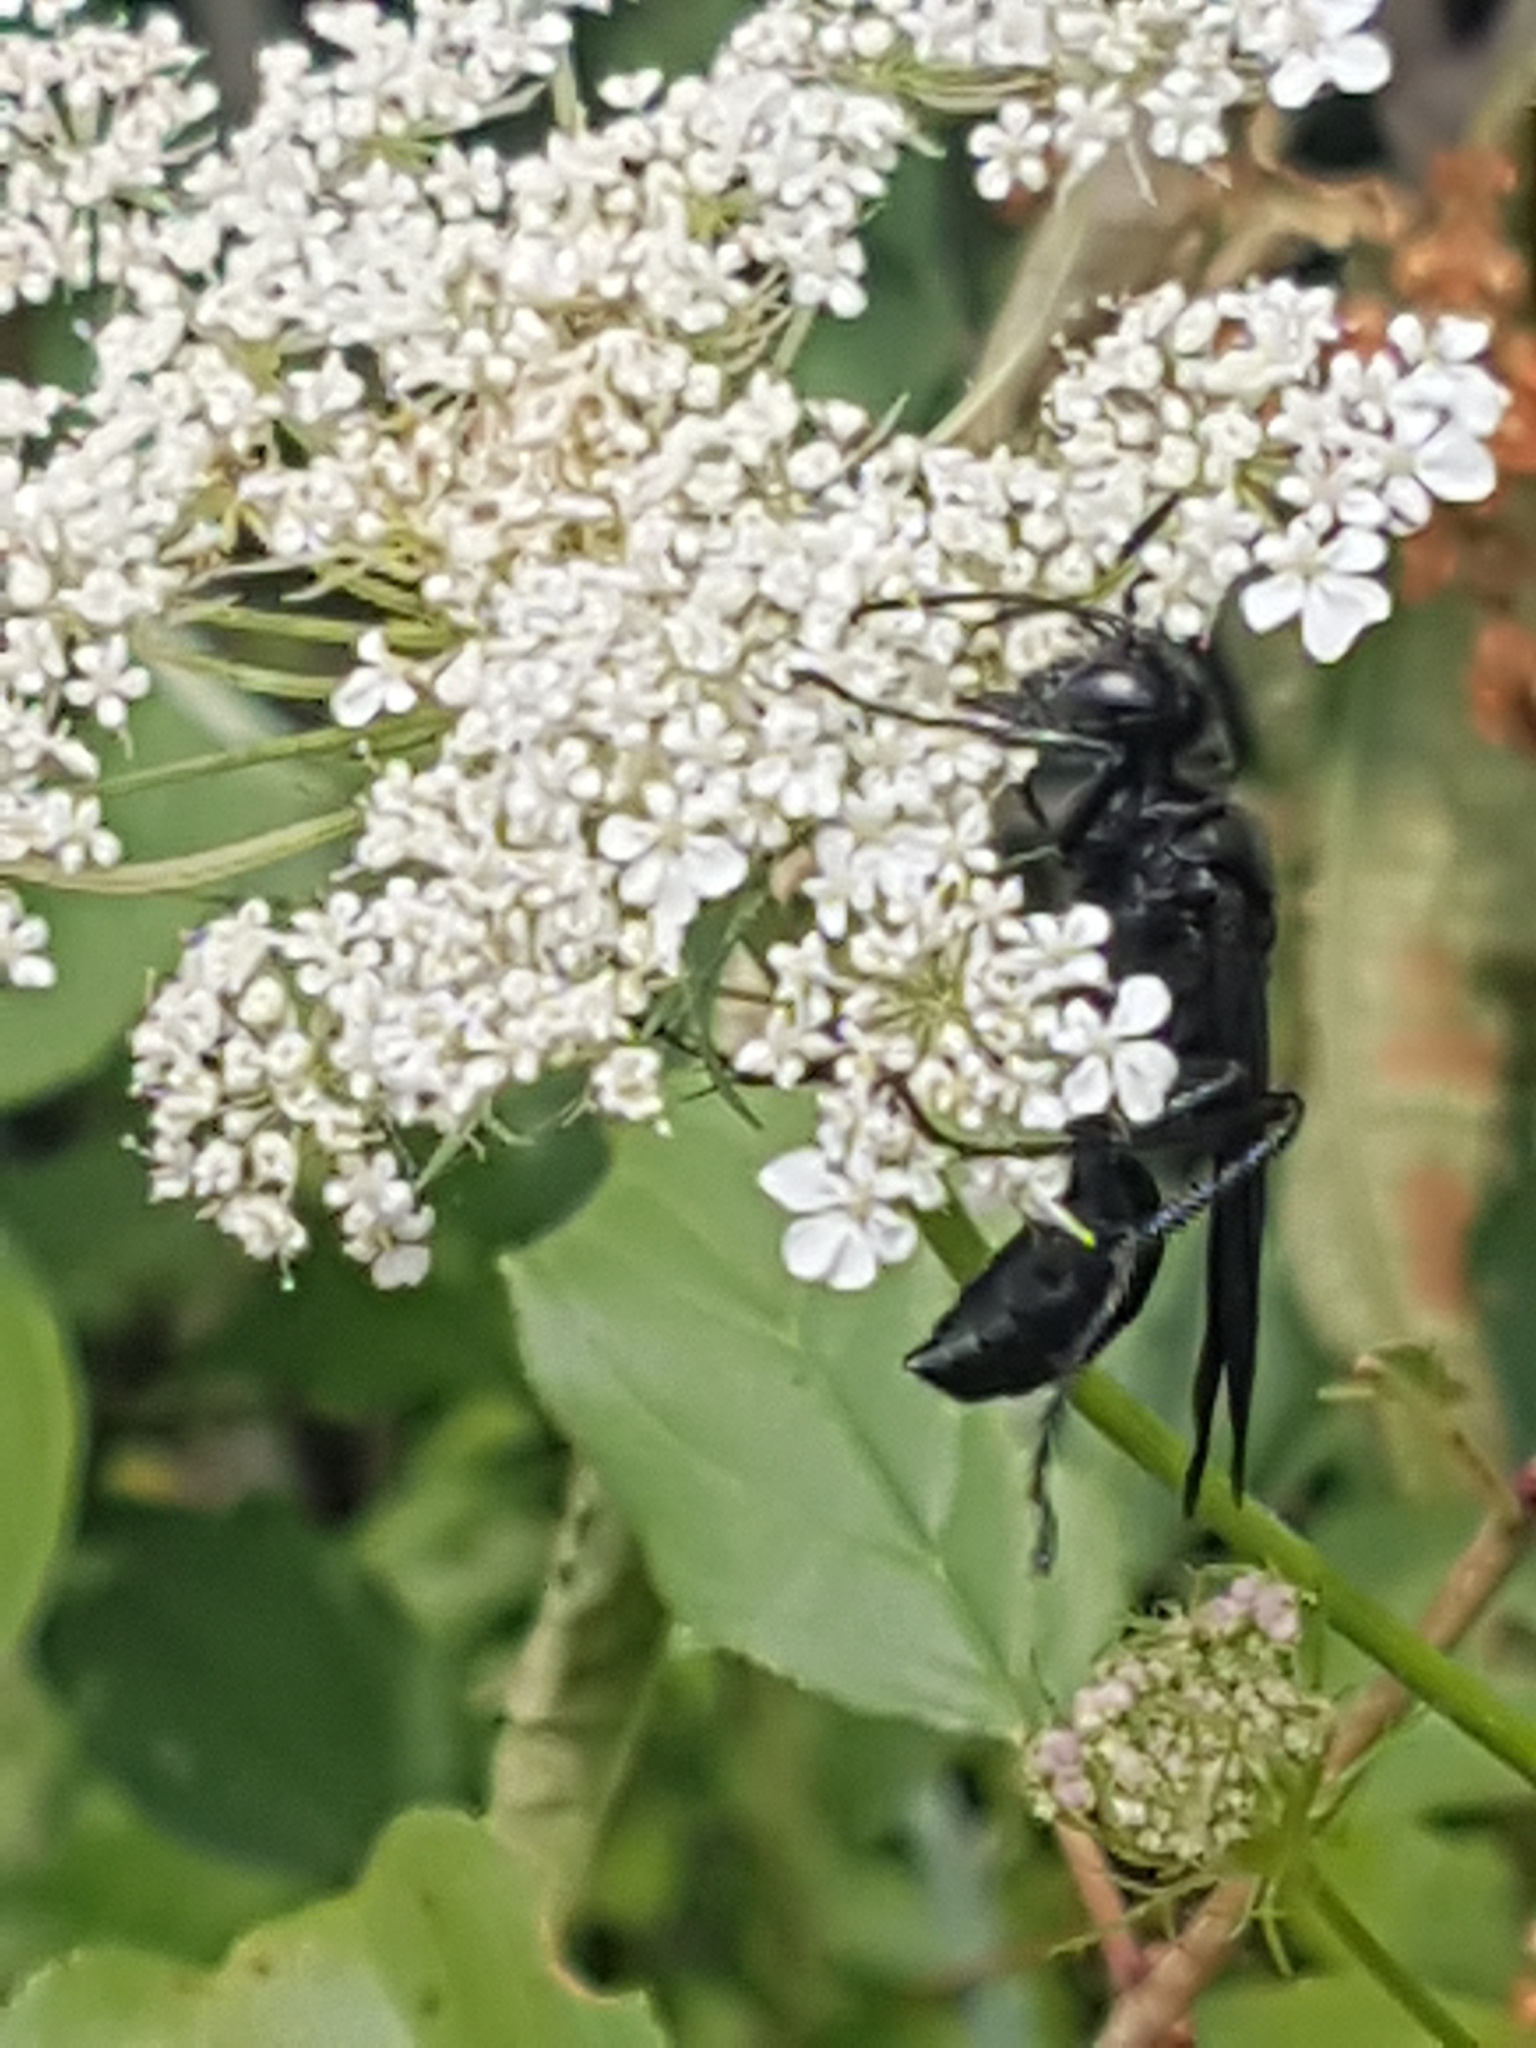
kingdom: Animalia
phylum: Arthropoda
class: Insecta
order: Hymenoptera
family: Sphecidae
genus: Sphex
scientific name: Sphex pensylvanicus
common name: Great black digger wasp
